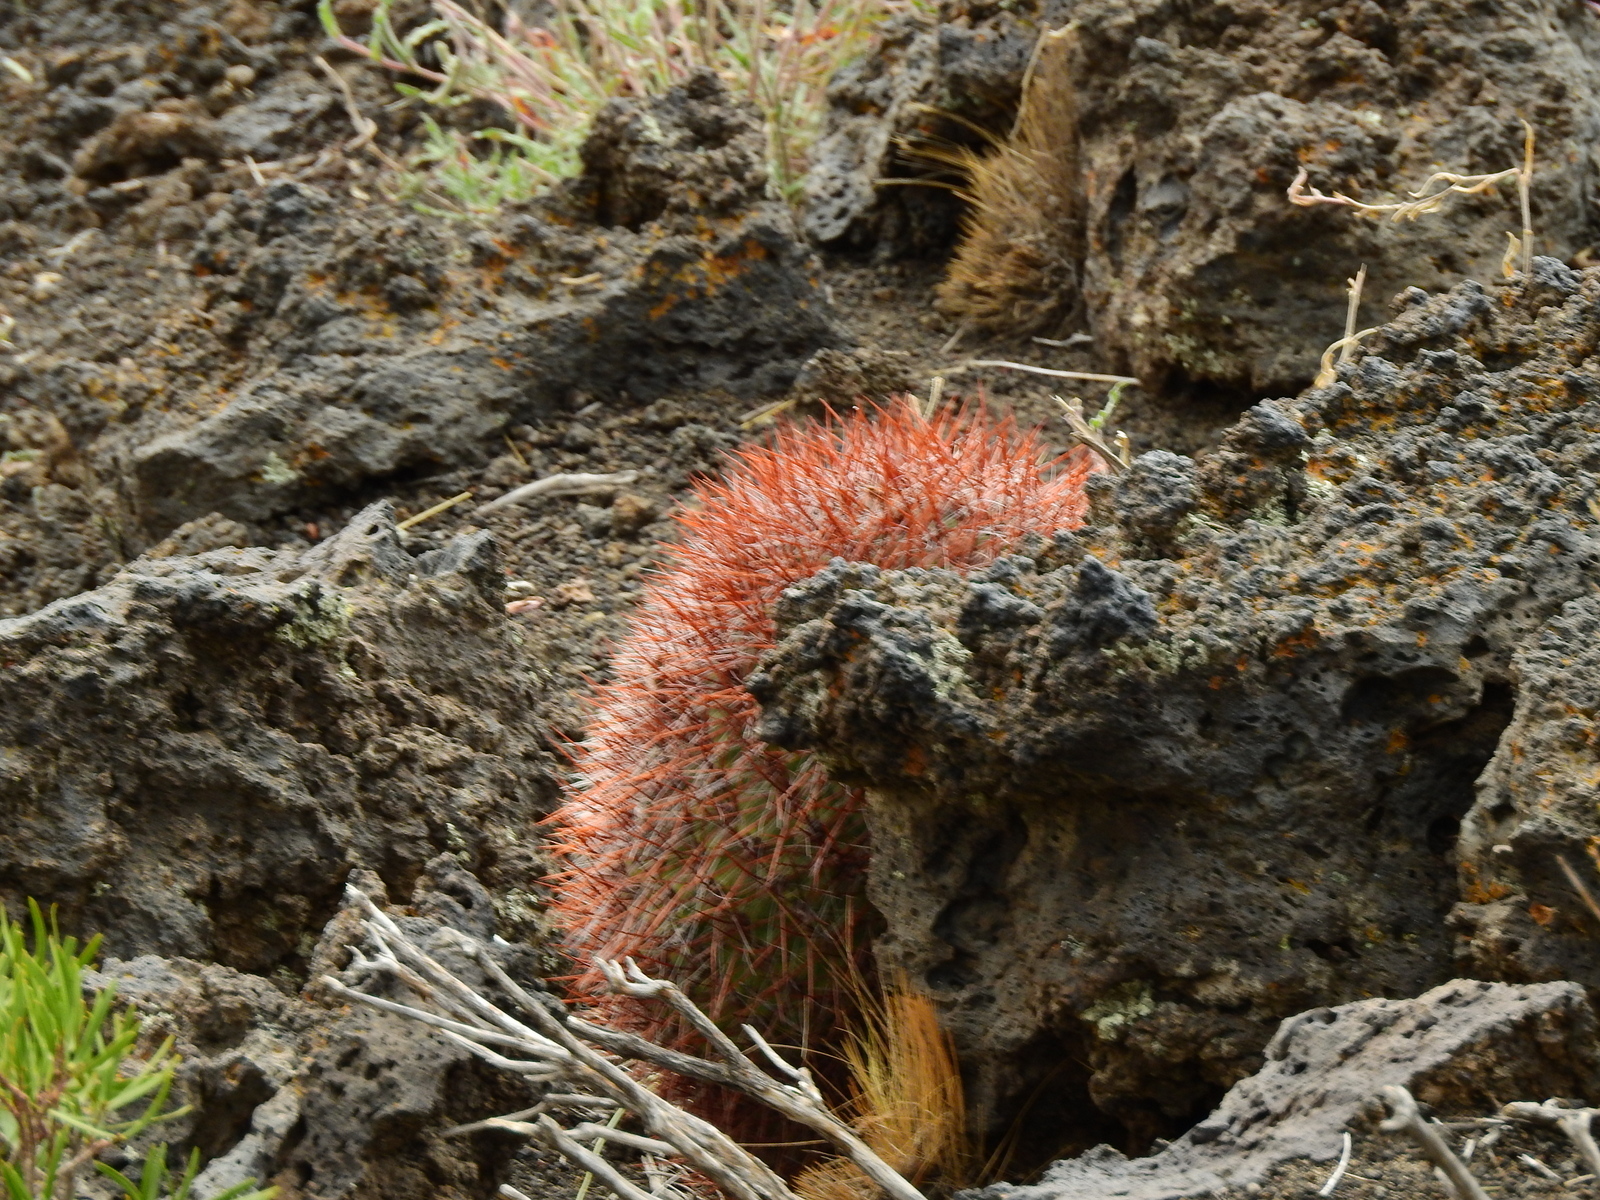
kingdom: Plantae
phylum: Tracheophyta
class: Magnoliopsida
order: Caryophyllales
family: Cactaceae
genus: Denmoza
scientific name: Denmoza rhodacantha
